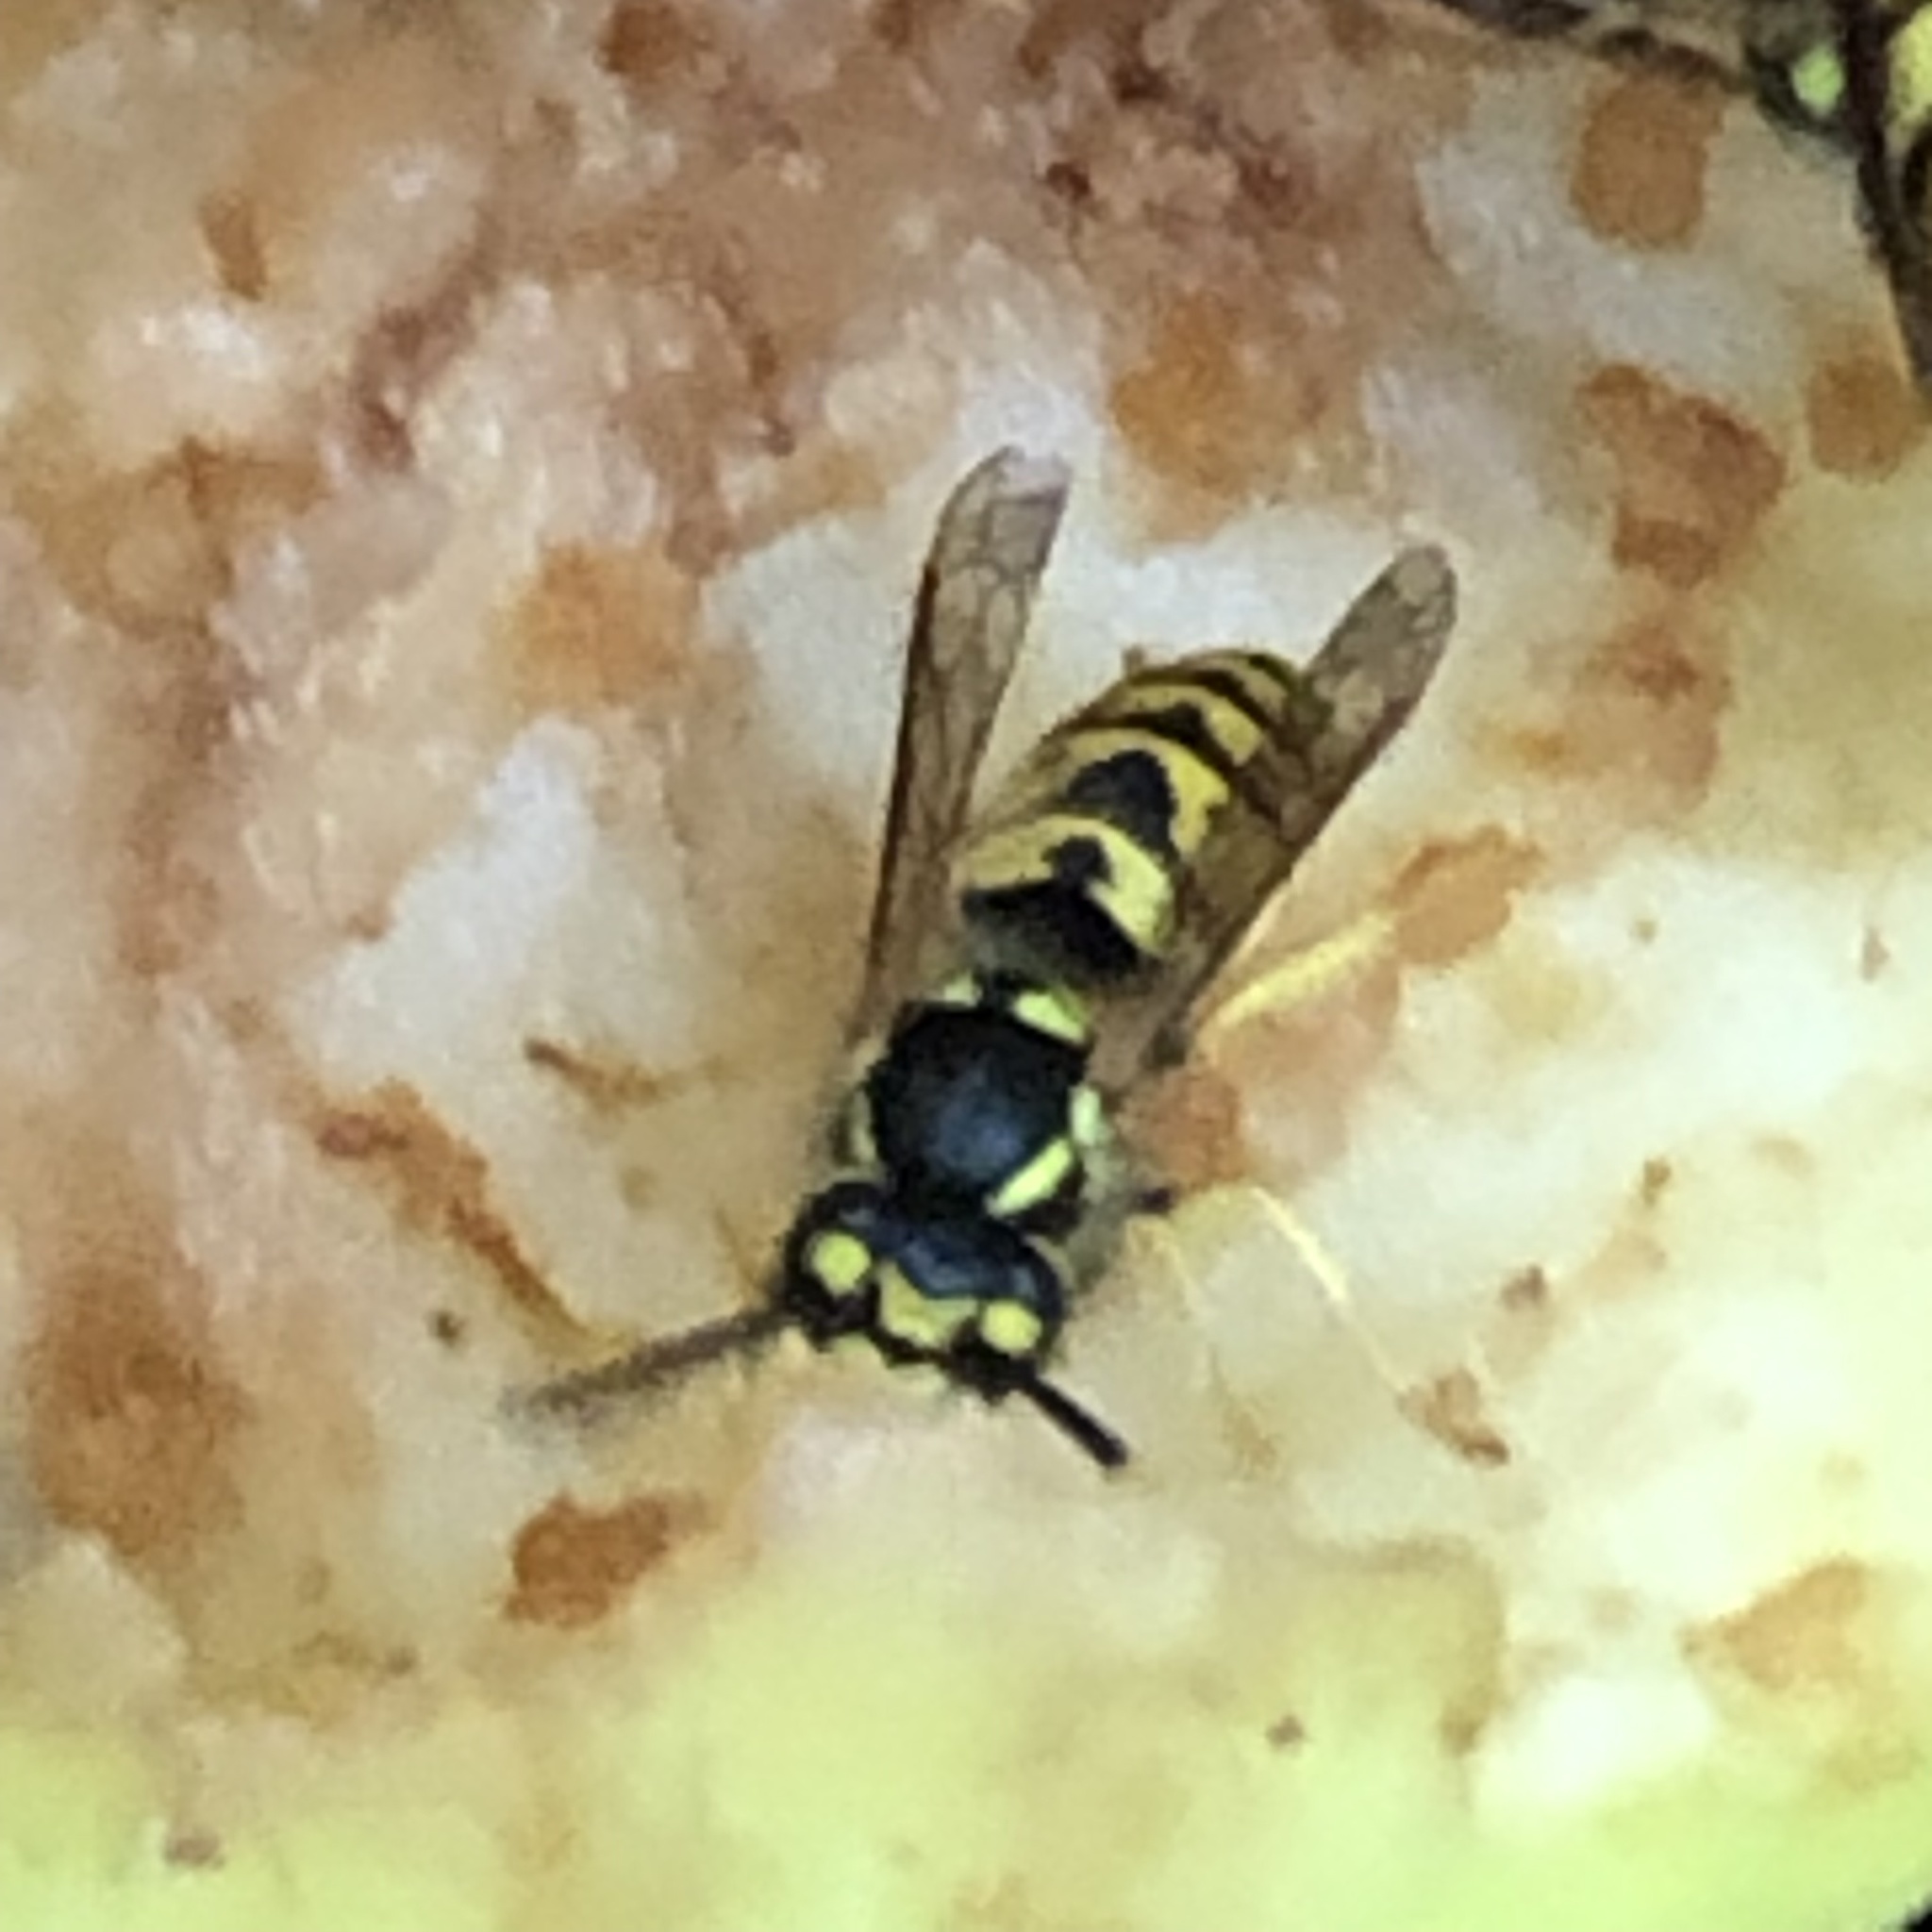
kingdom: Animalia
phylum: Arthropoda
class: Insecta
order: Hymenoptera
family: Vespidae
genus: Vespula
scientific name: Vespula germanica
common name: German wasp
